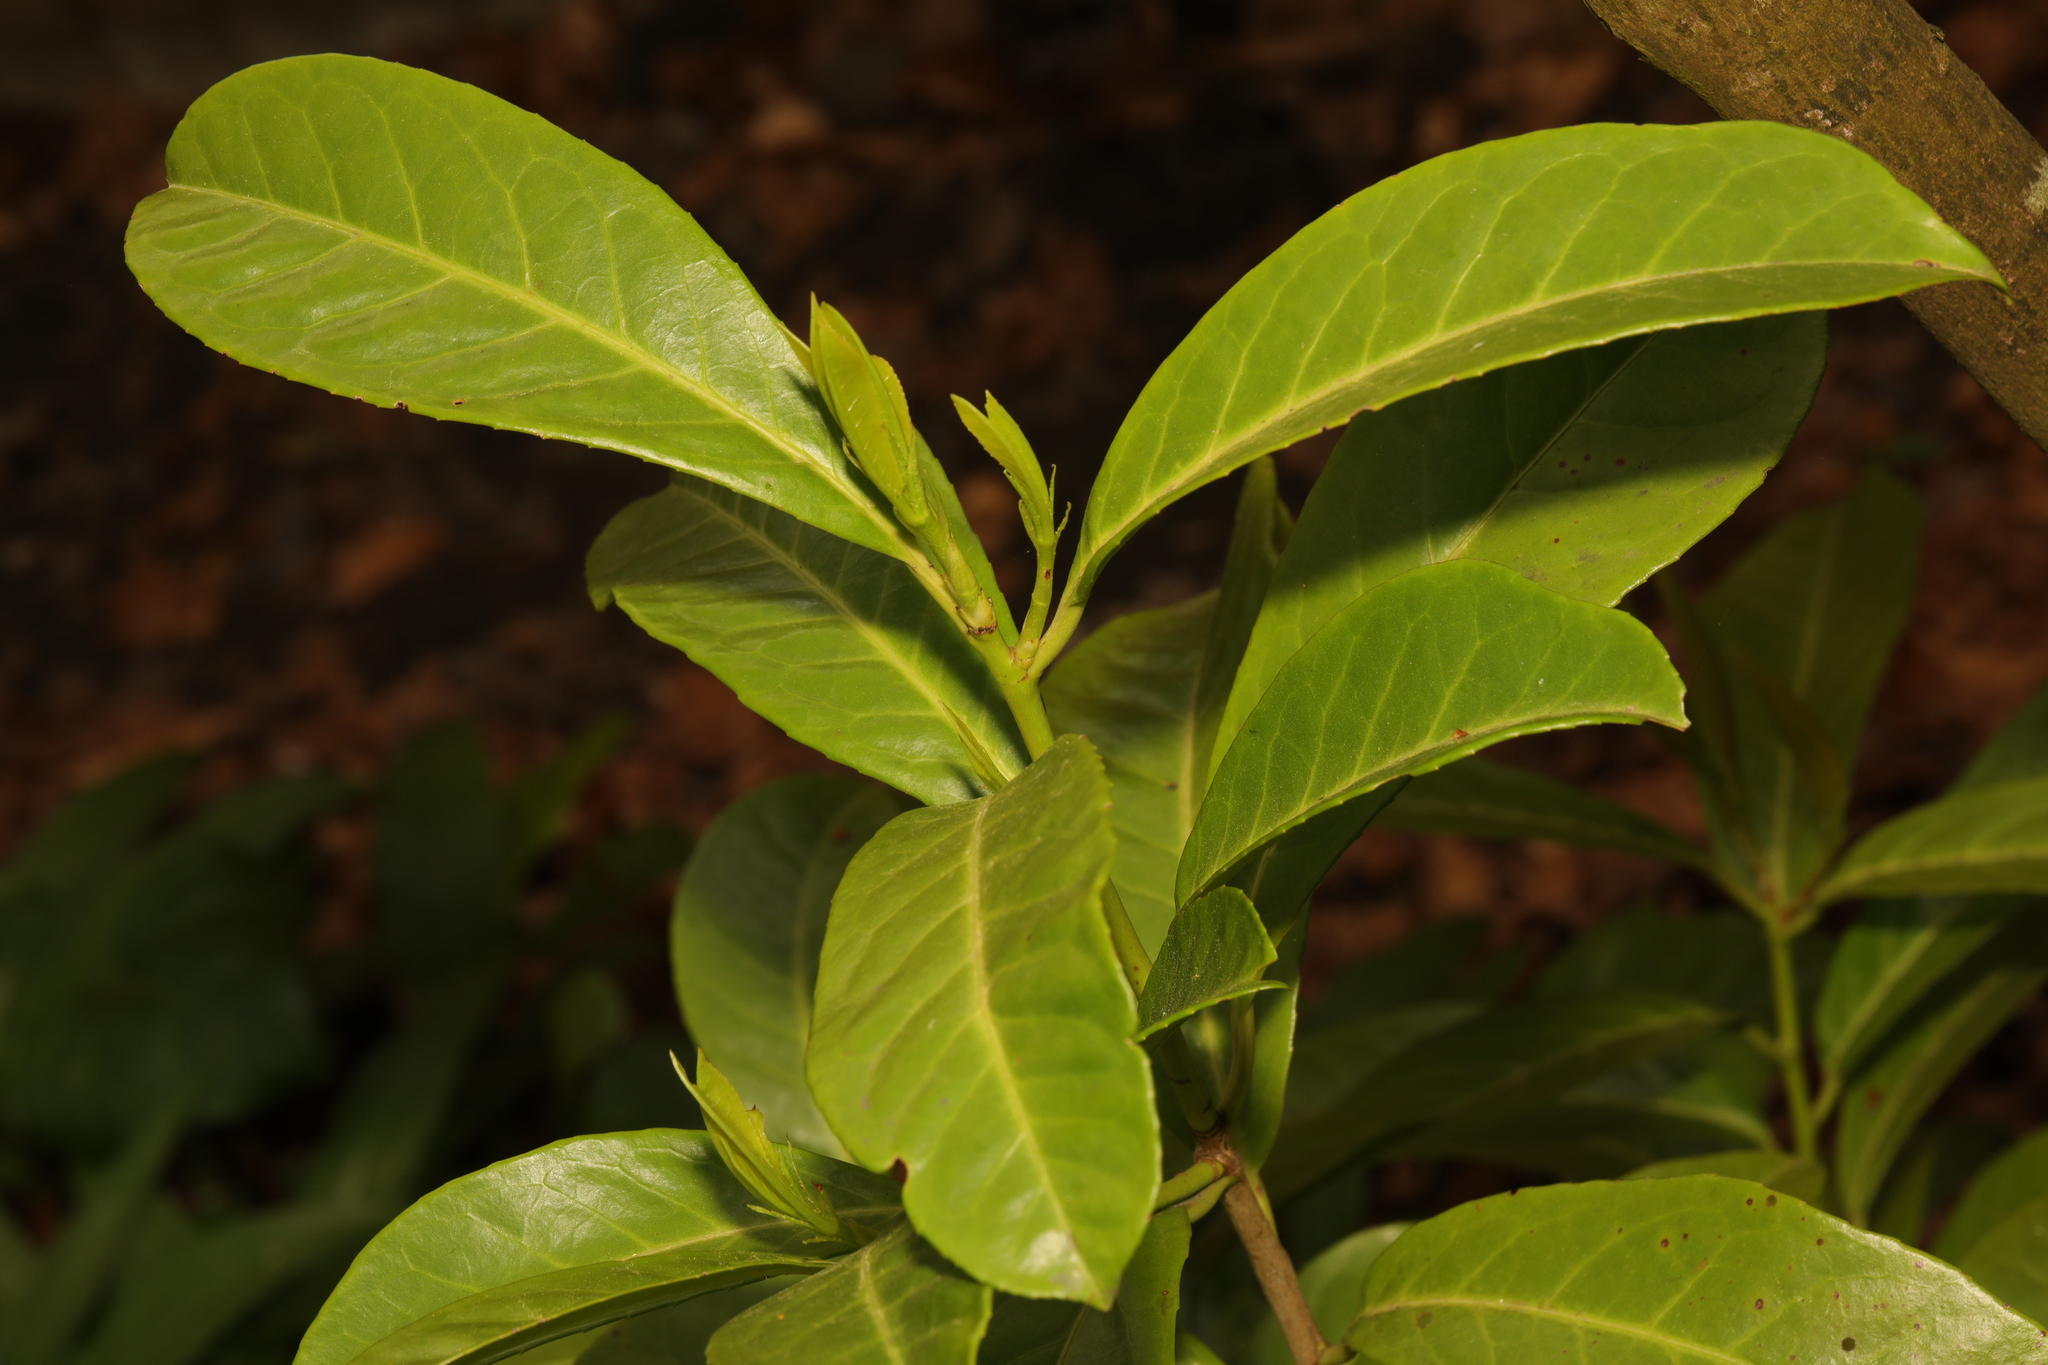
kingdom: Plantae
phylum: Tracheophyta
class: Magnoliopsida
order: Rosales
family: Rosaceae
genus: Prunus
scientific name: Prunus laurocerasus
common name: Cherry laurel
